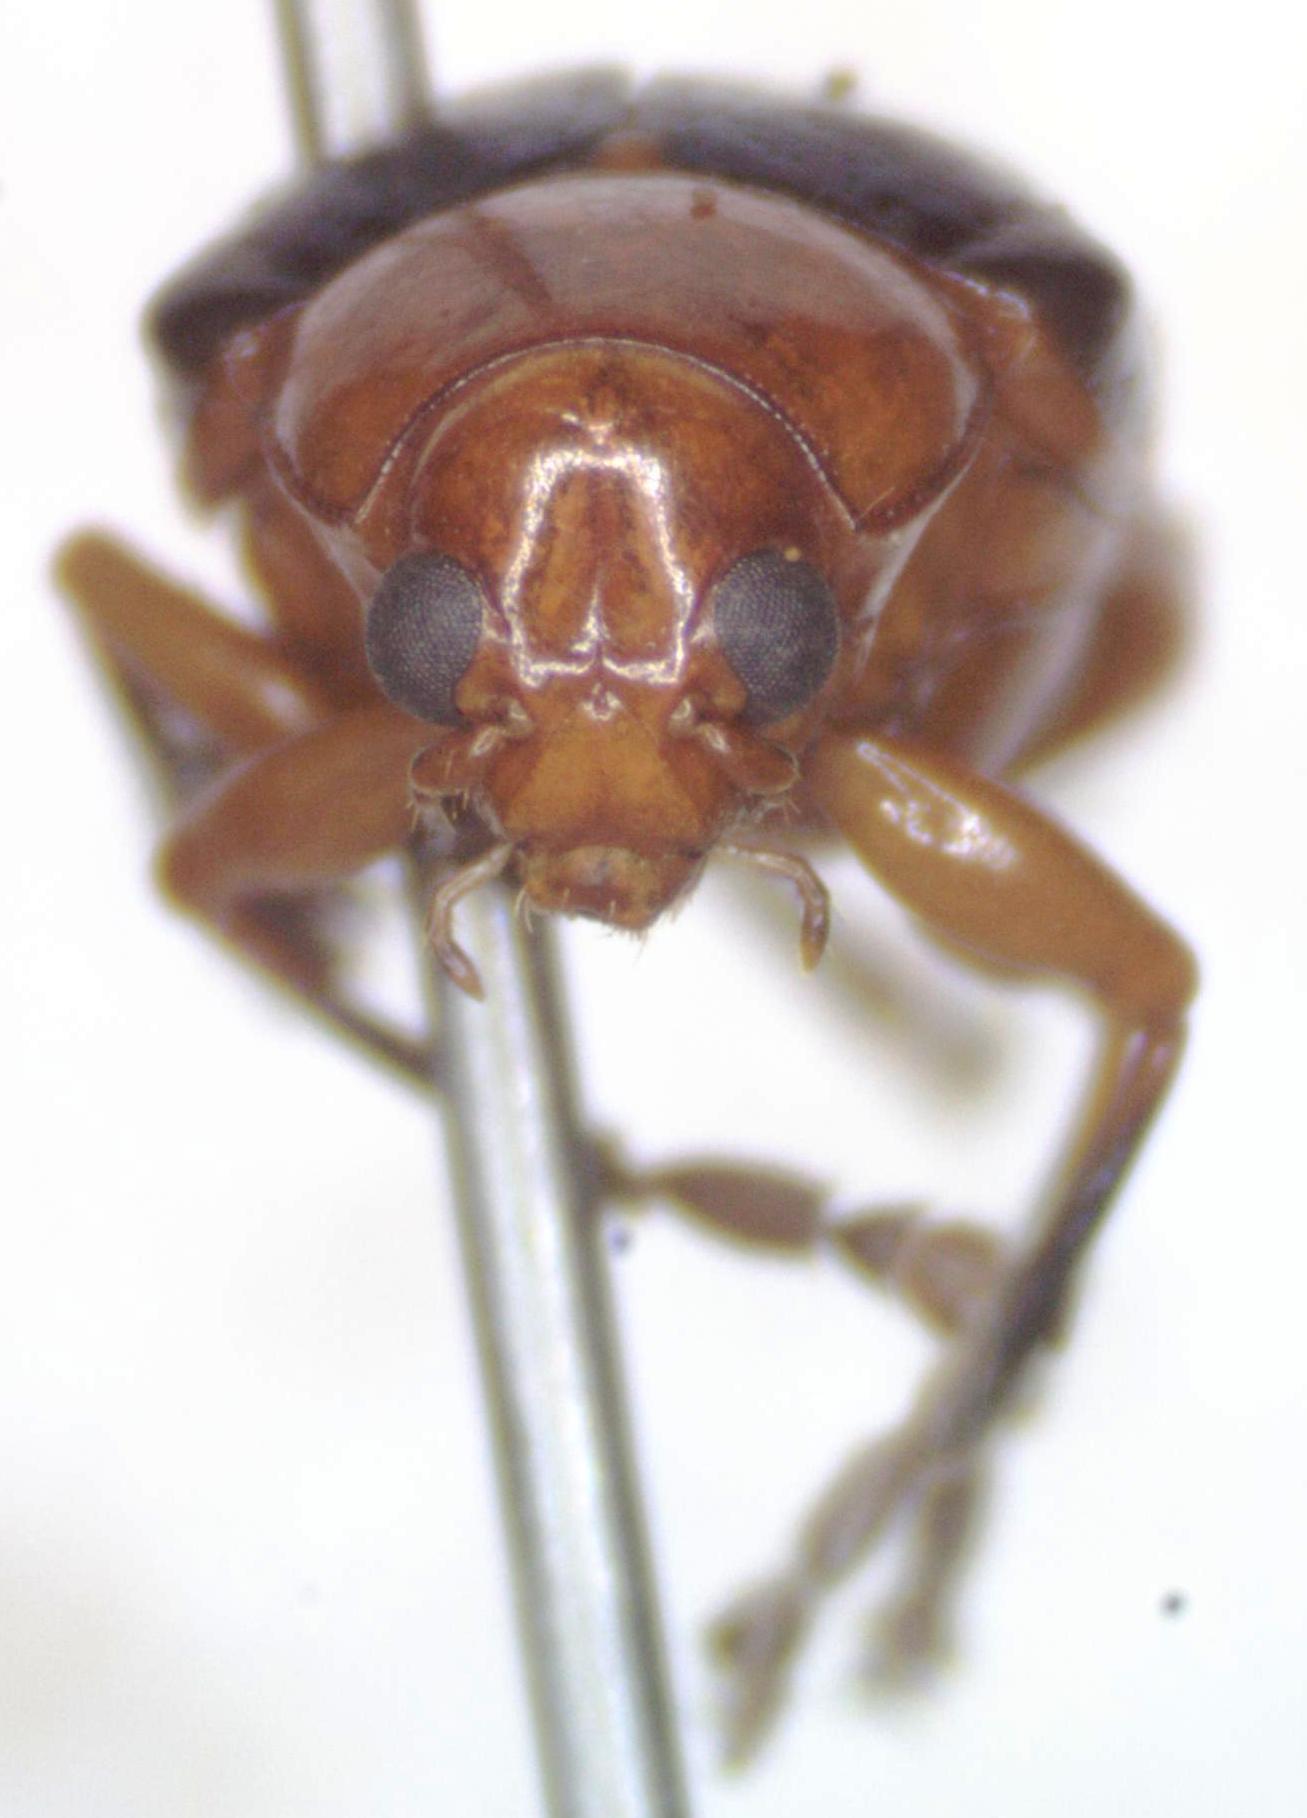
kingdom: Animalia
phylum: Arthropoda
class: Insecta
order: Coleoptera
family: Chrysomelidae
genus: Chalcophana
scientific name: Chalcophana
